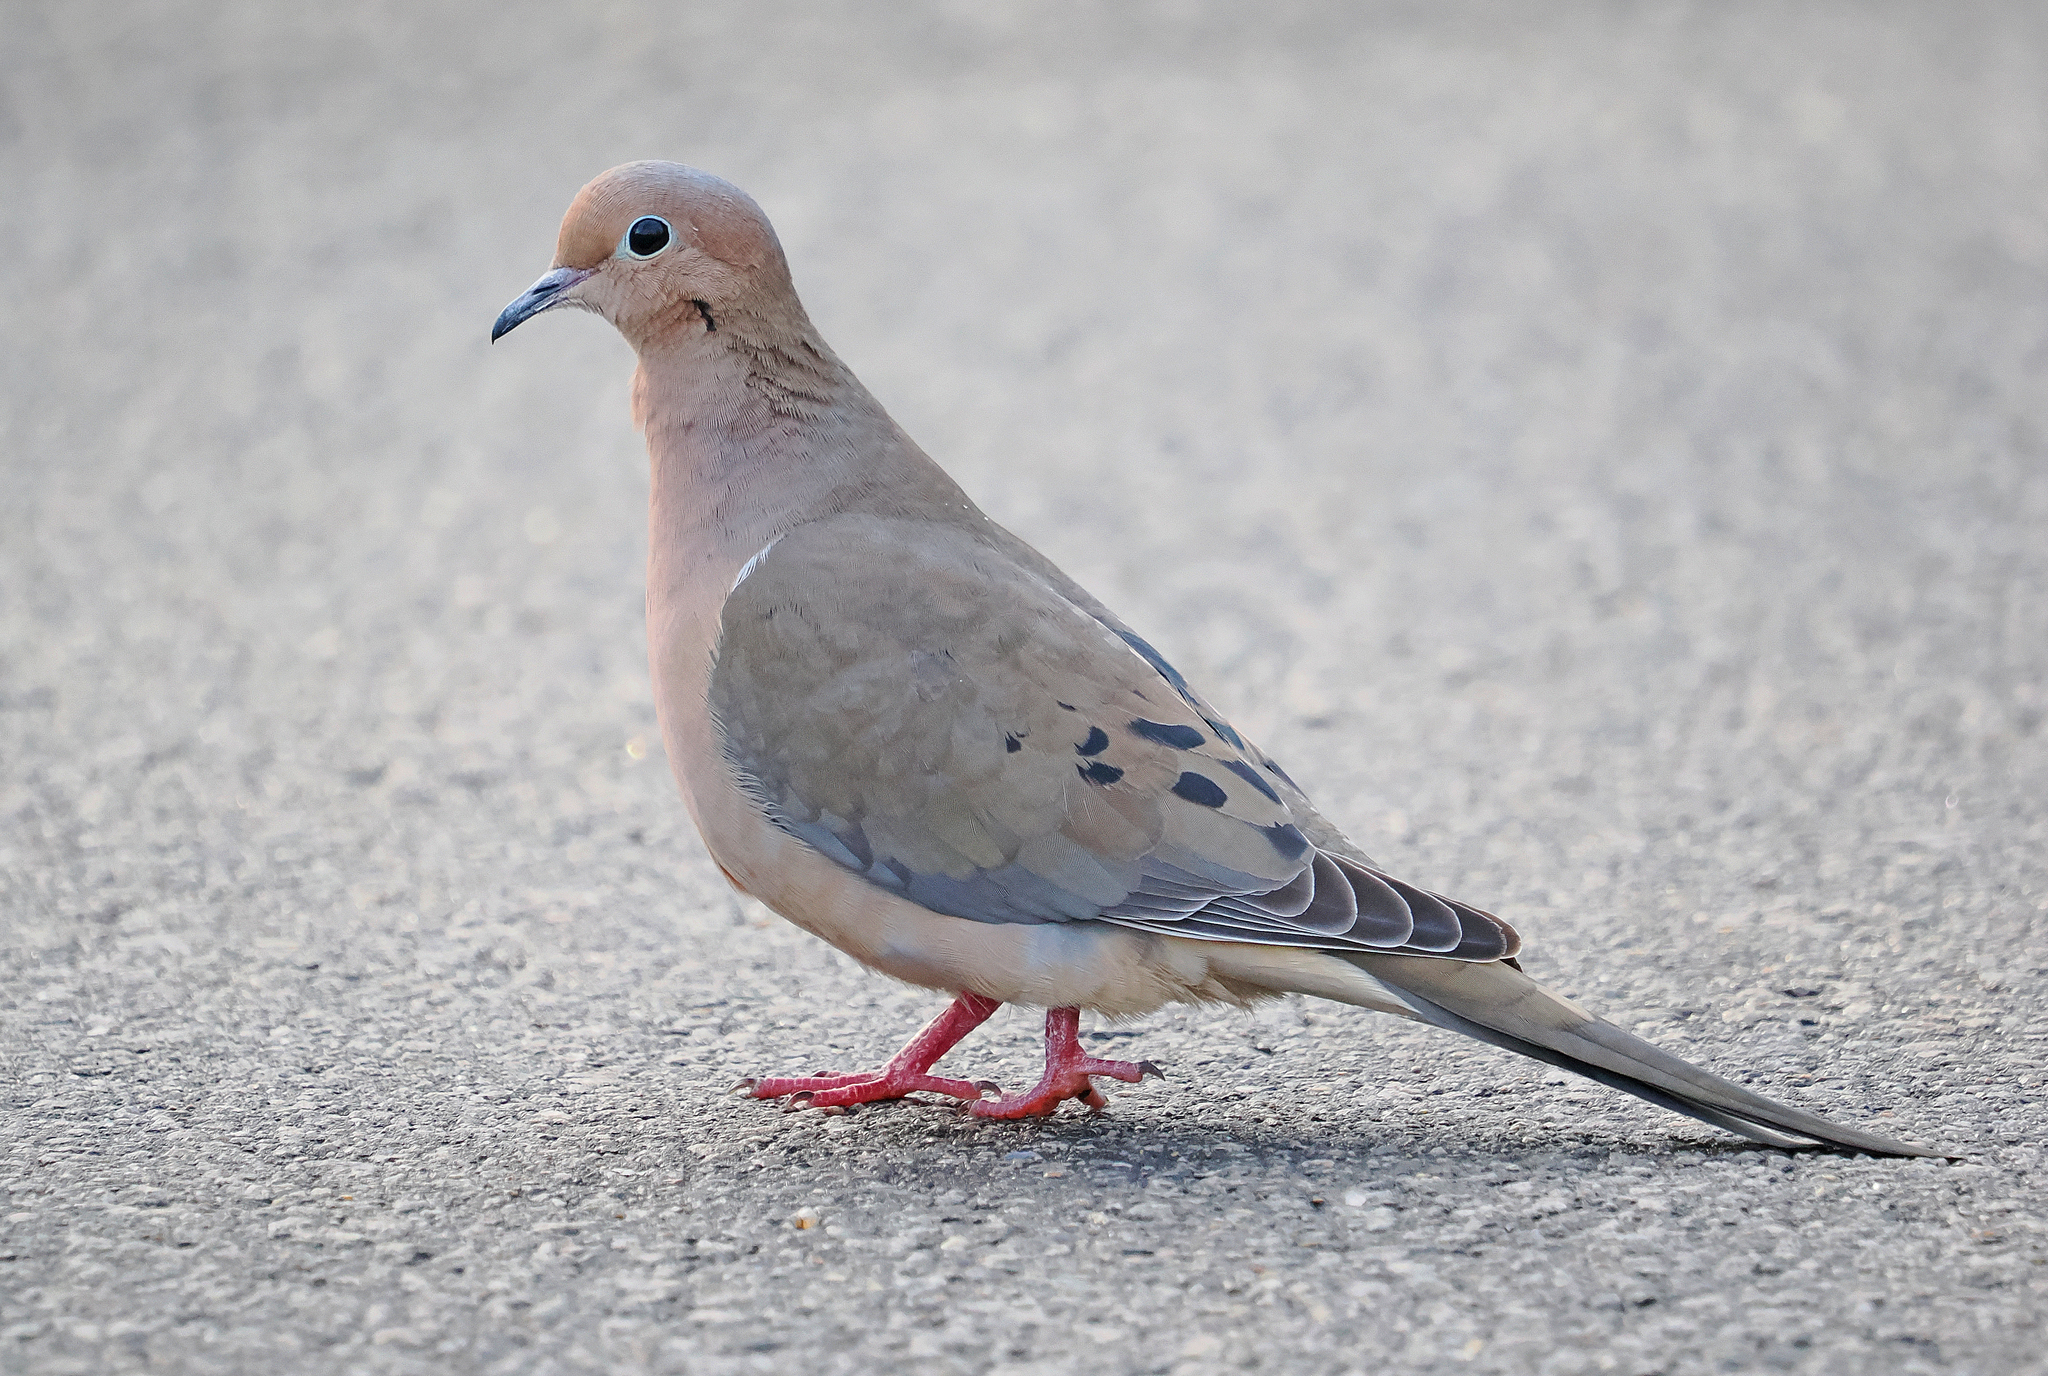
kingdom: Animalia
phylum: Chordata
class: Aves
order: Columbiformes
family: Columbidae
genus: Zenaida
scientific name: Zenaida macroura
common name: Mourning dove
